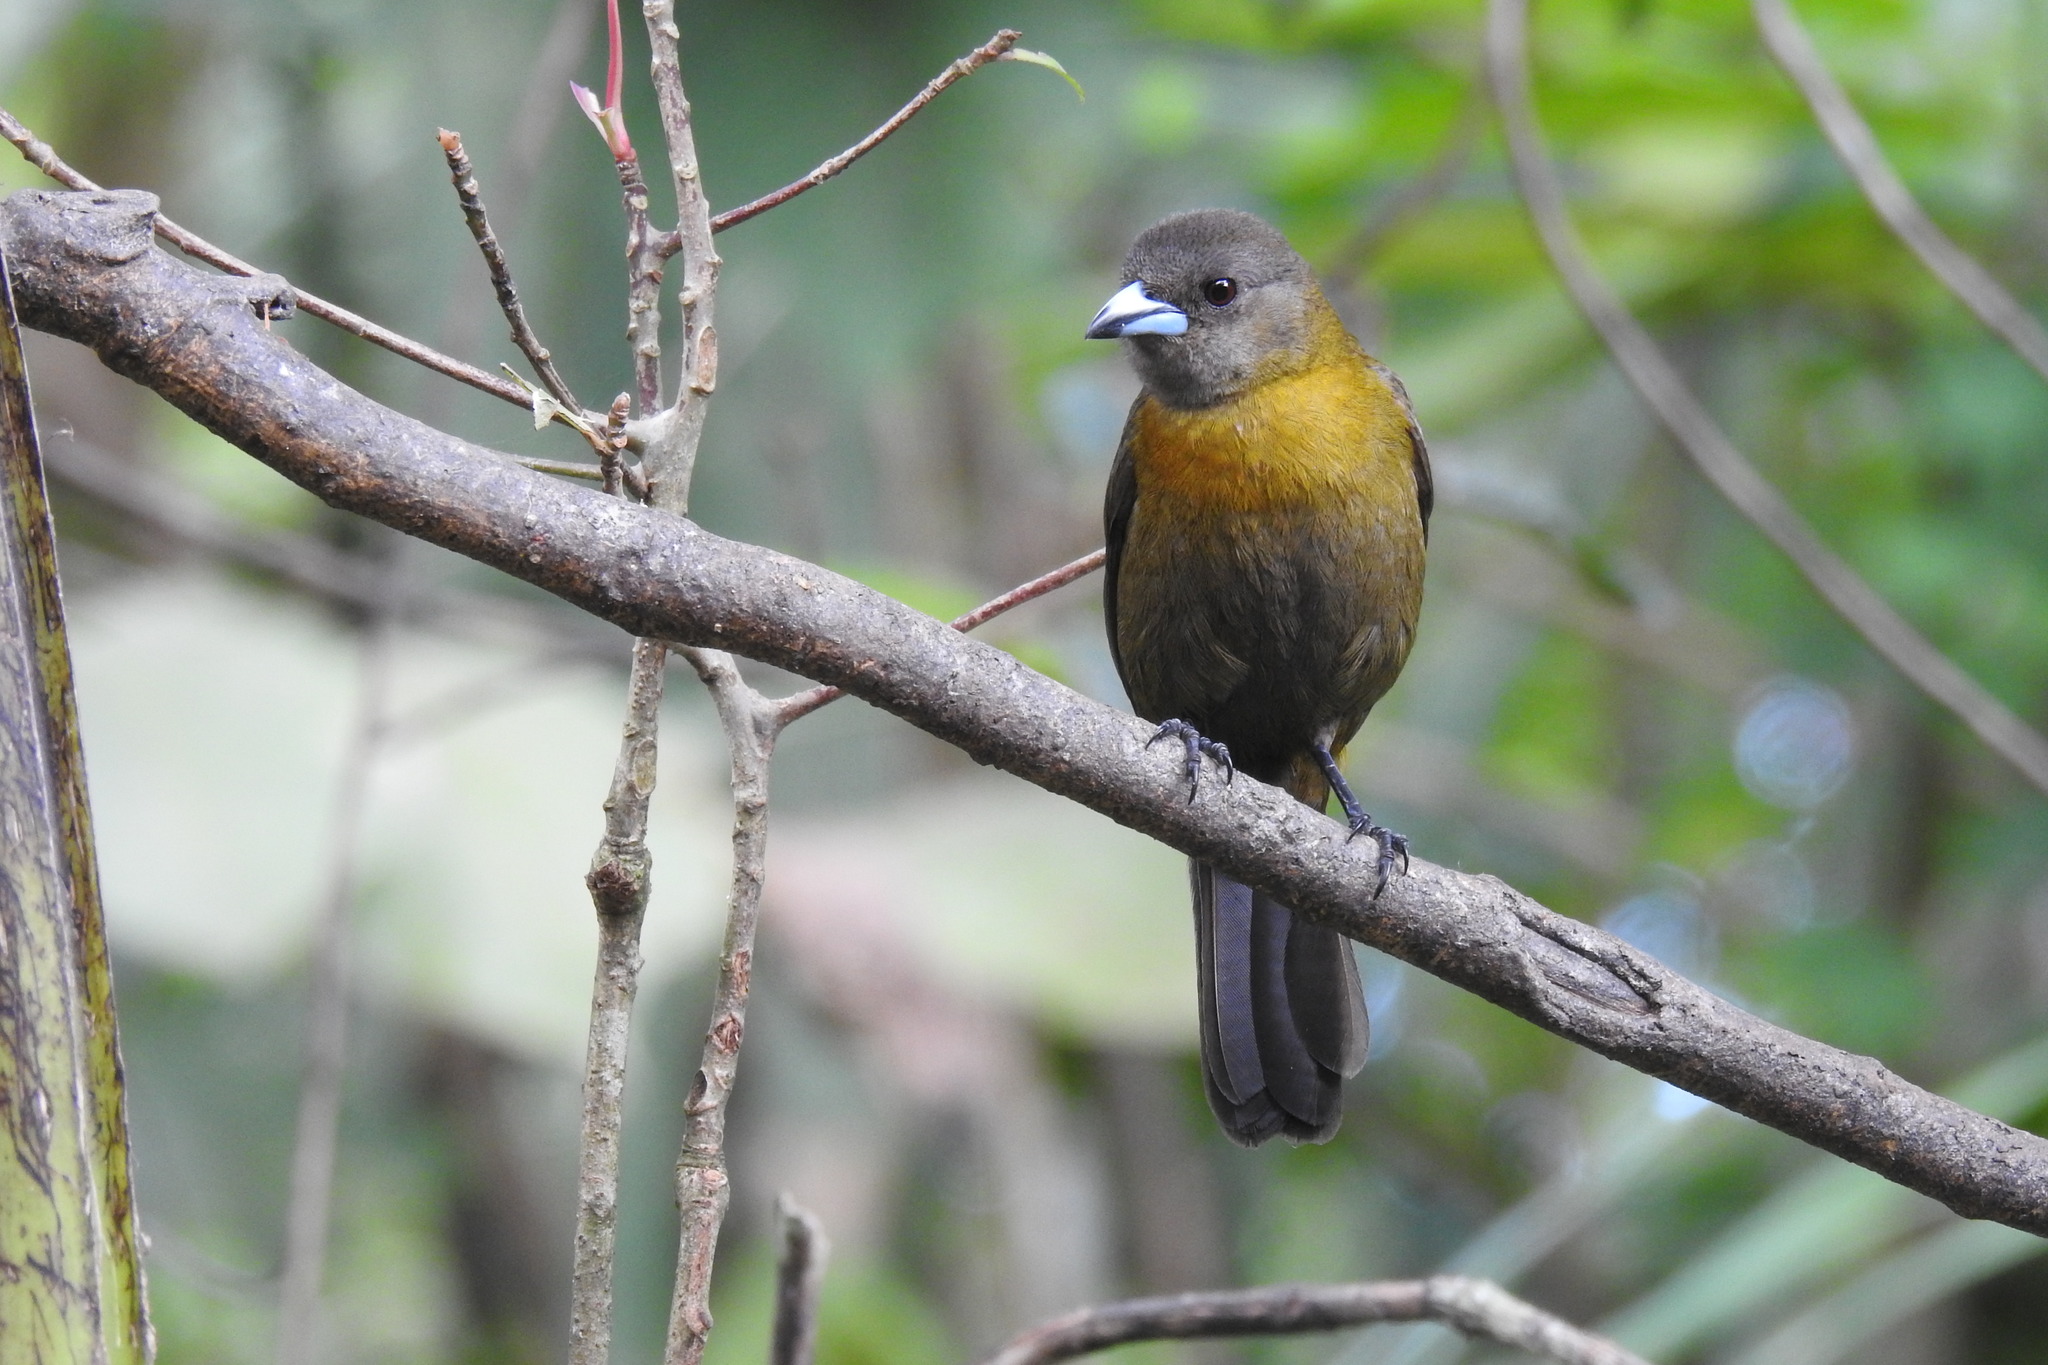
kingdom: Animalia
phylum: Chordata
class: Aves
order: Passeriformes
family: Thraupidae
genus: Ramphocelus
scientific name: Ramphocelus passerinii
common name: Passerini's tanager
